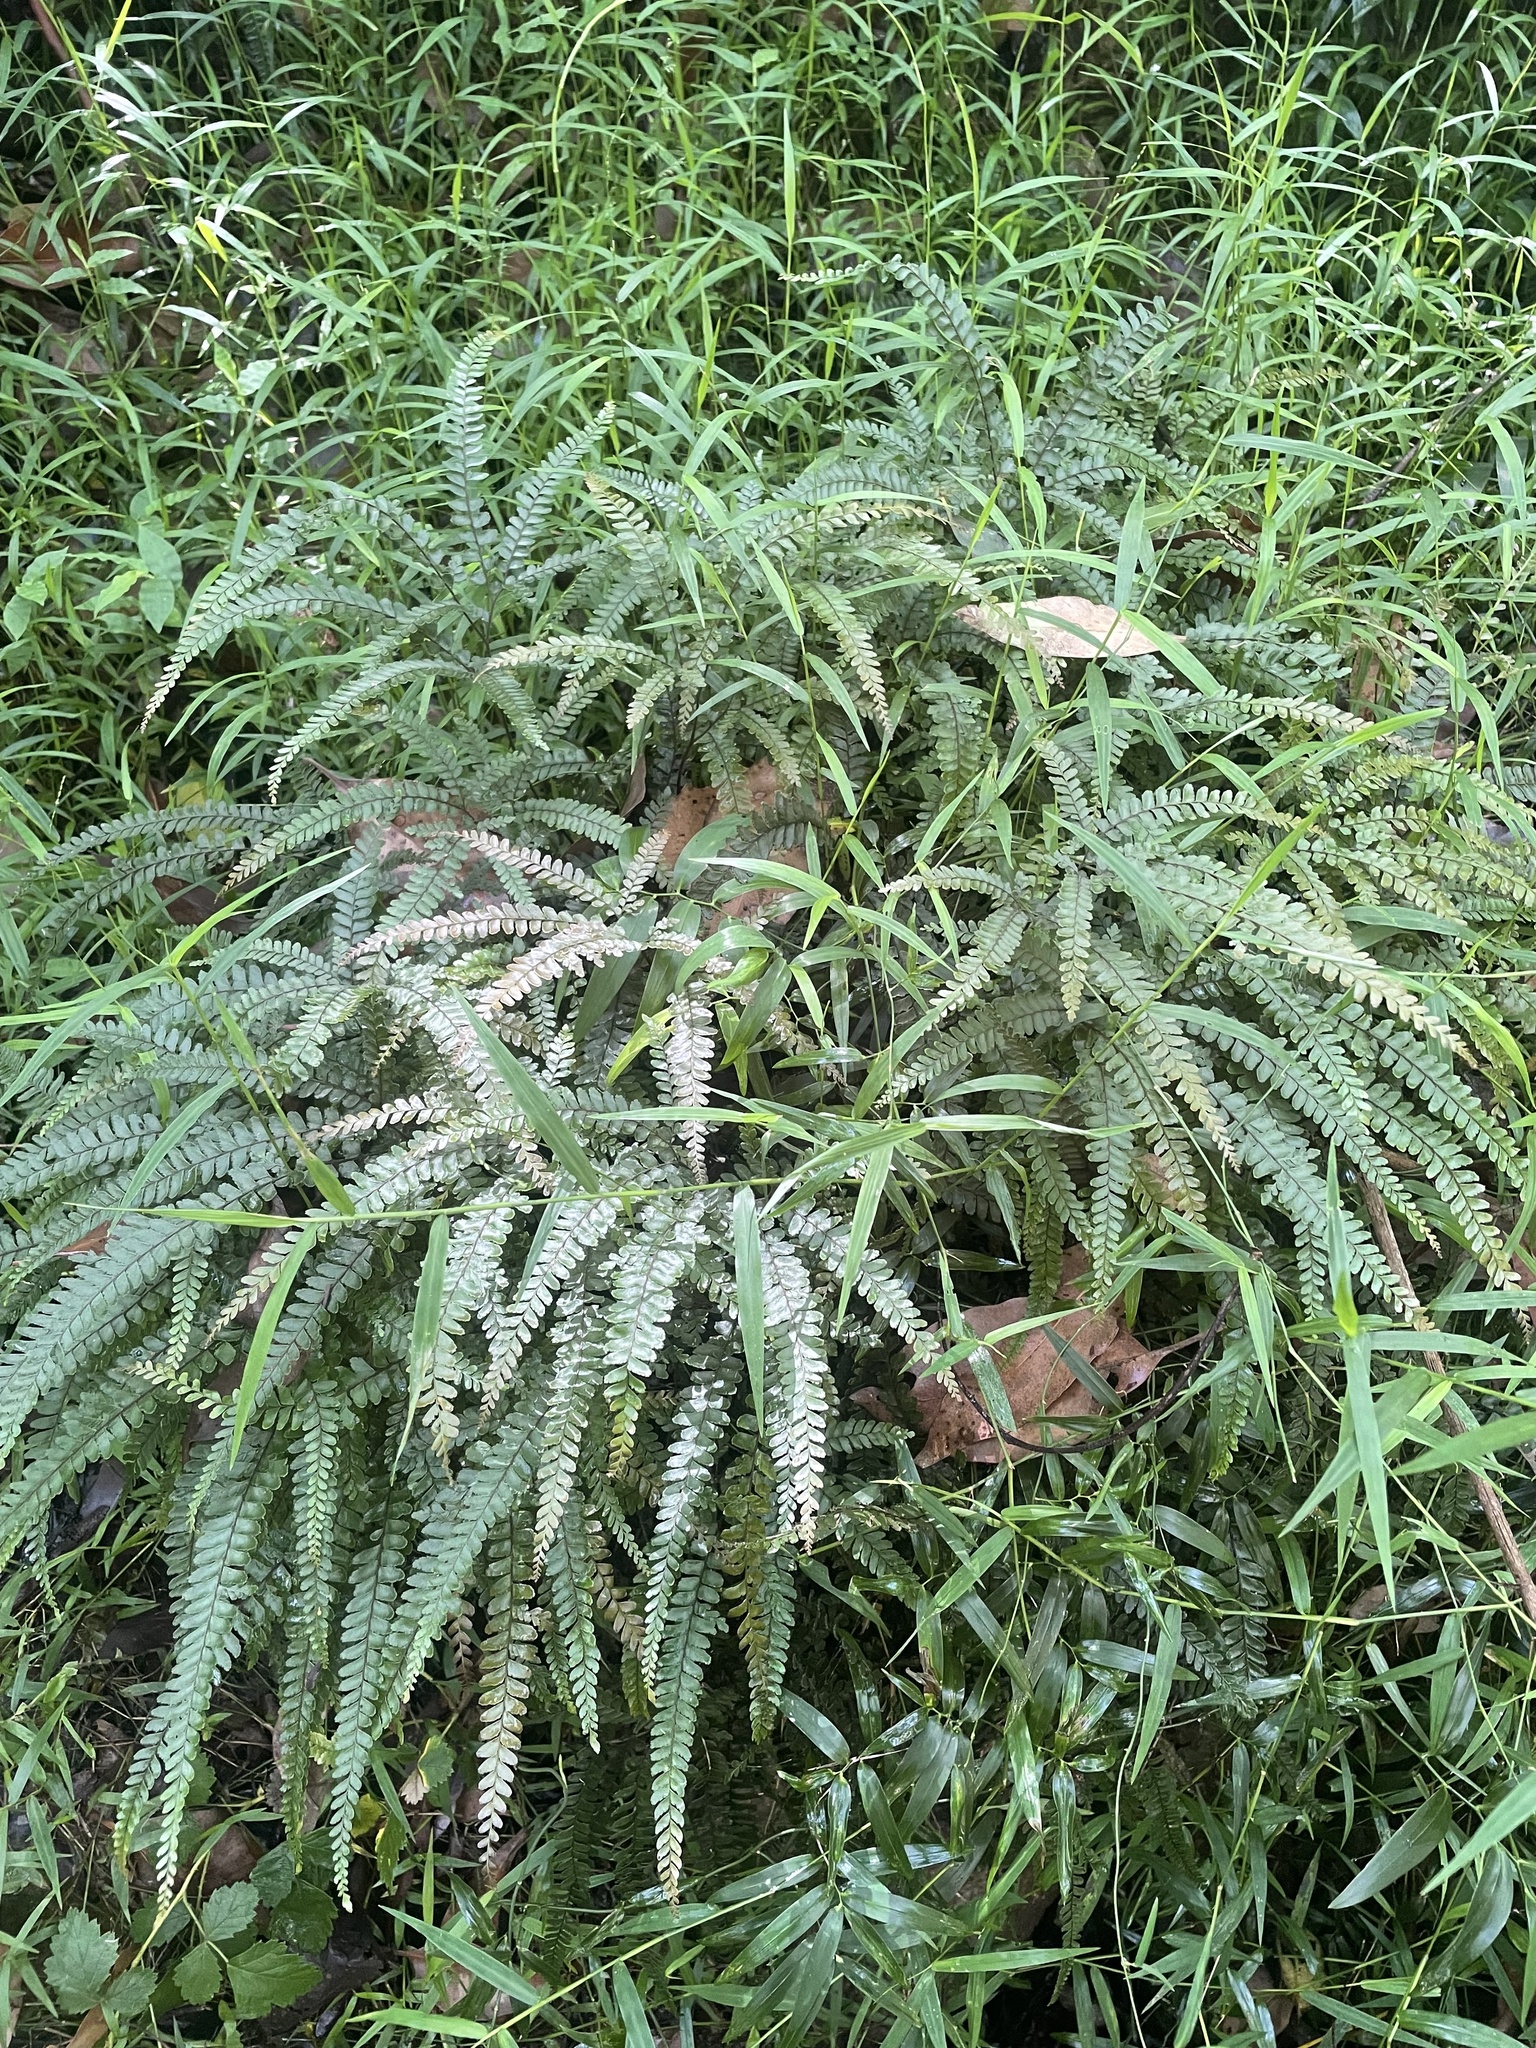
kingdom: Plantae
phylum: Tracheophyta
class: Polypodiopsida
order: Polypodiales
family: Pteridaceae
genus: Adiantum
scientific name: Adiantum hispidulum
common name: Rough maidenhair
